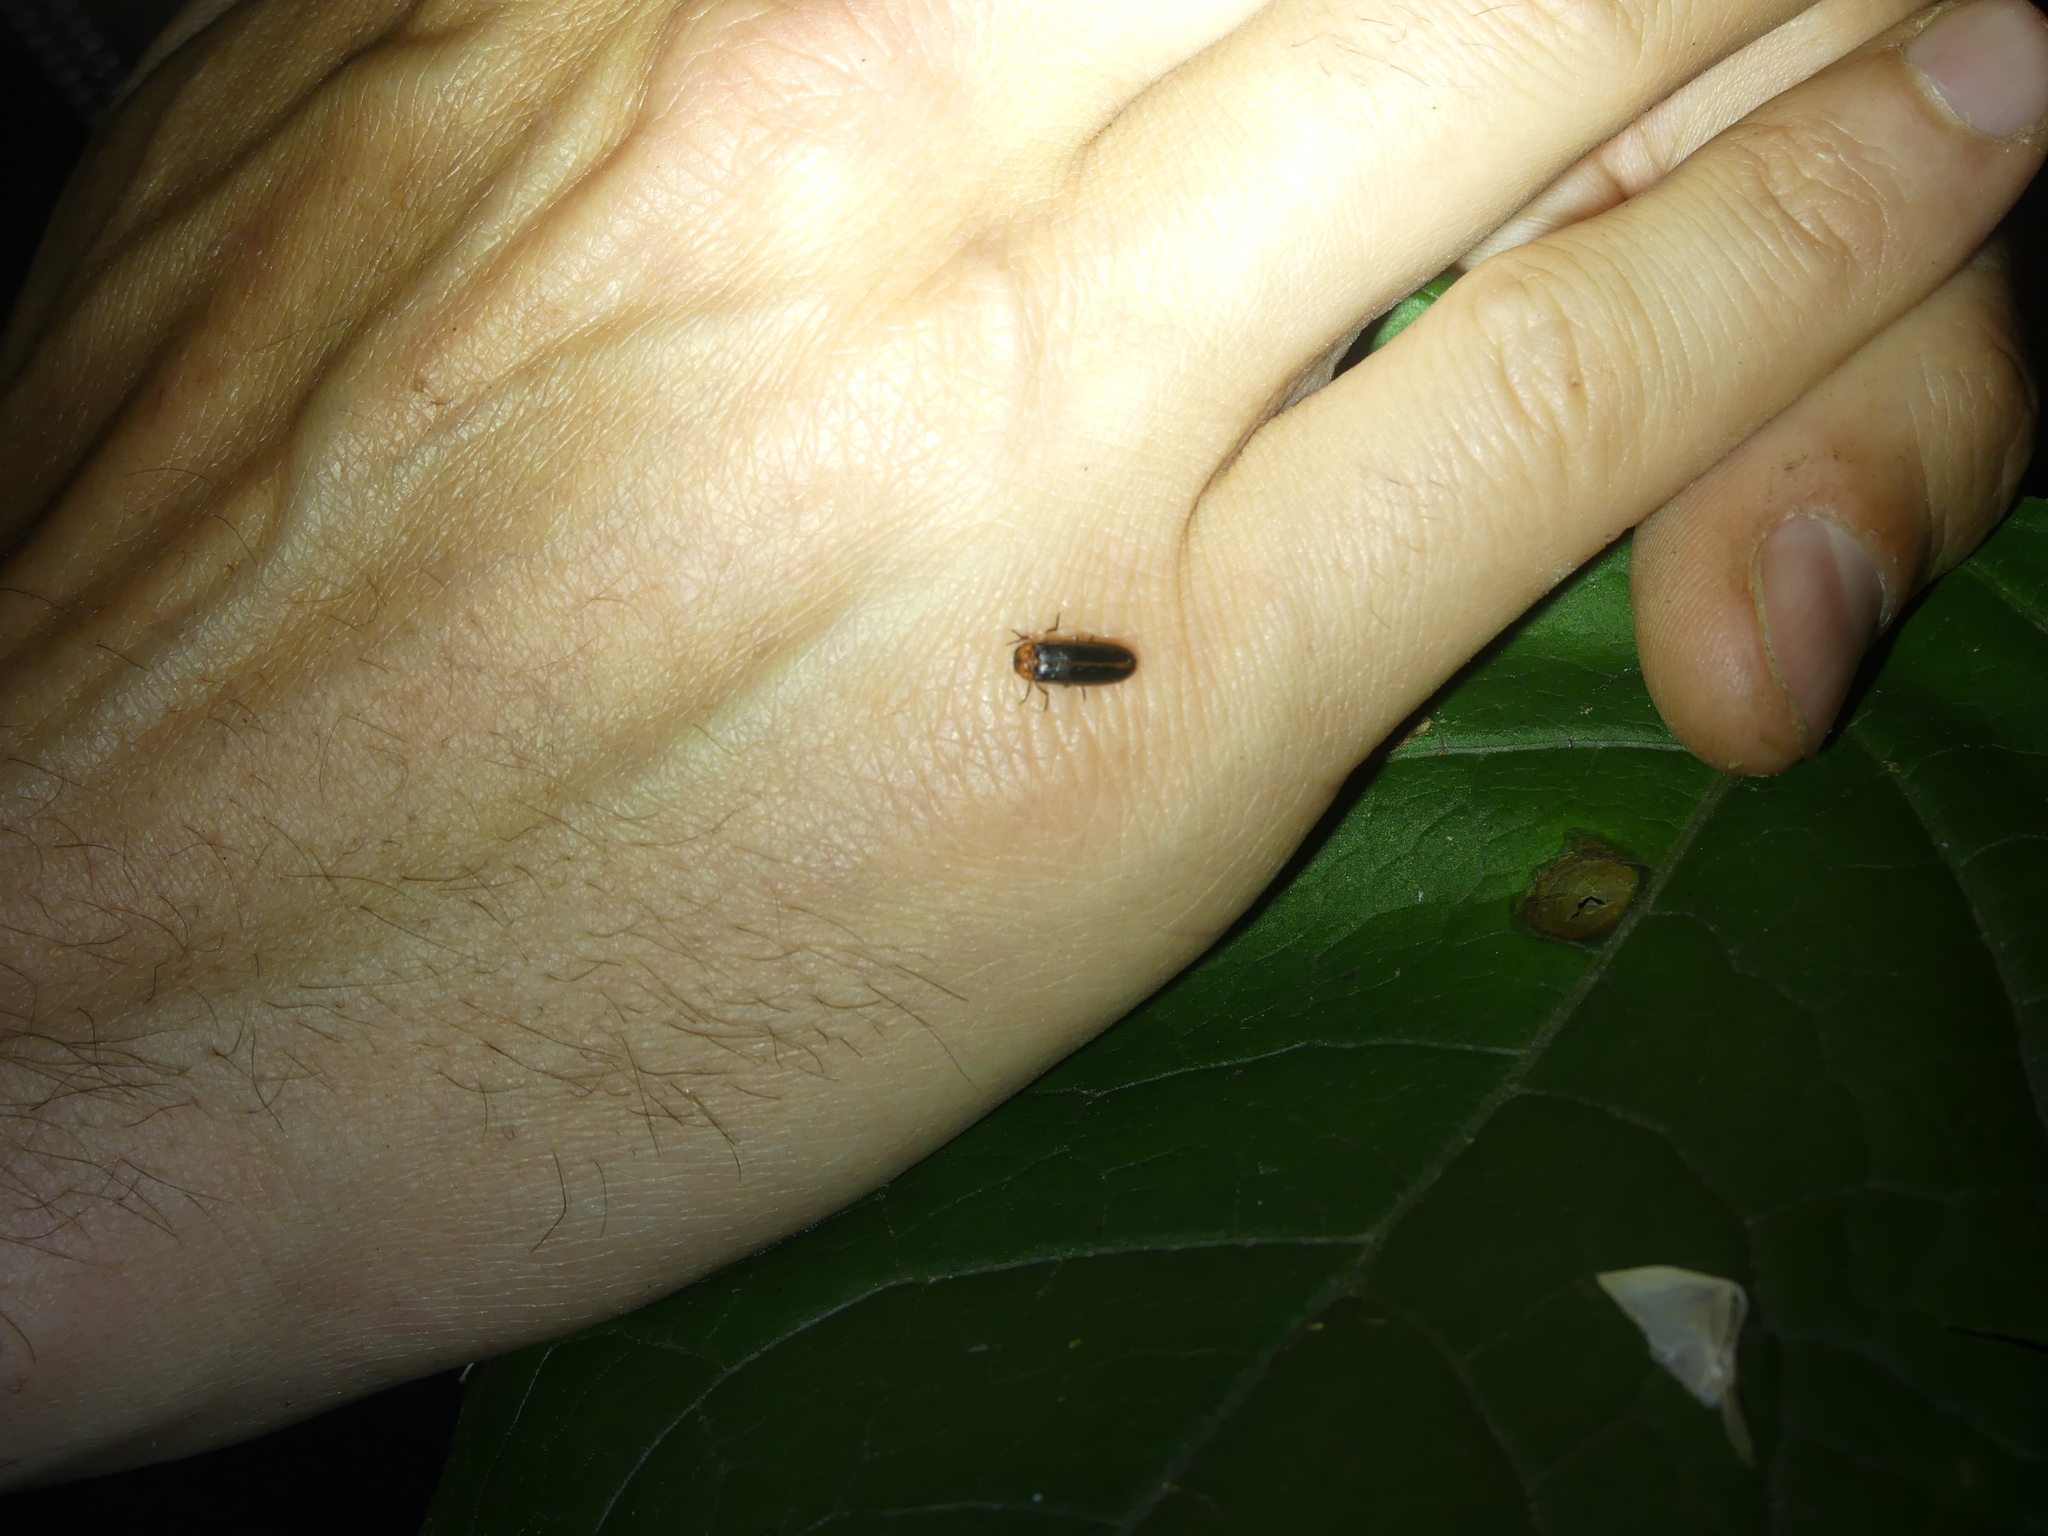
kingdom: Animalia
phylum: Arthropoda
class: Insecta
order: Coleoptera
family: Lampyridae
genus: Luciola
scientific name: Luciola italica
